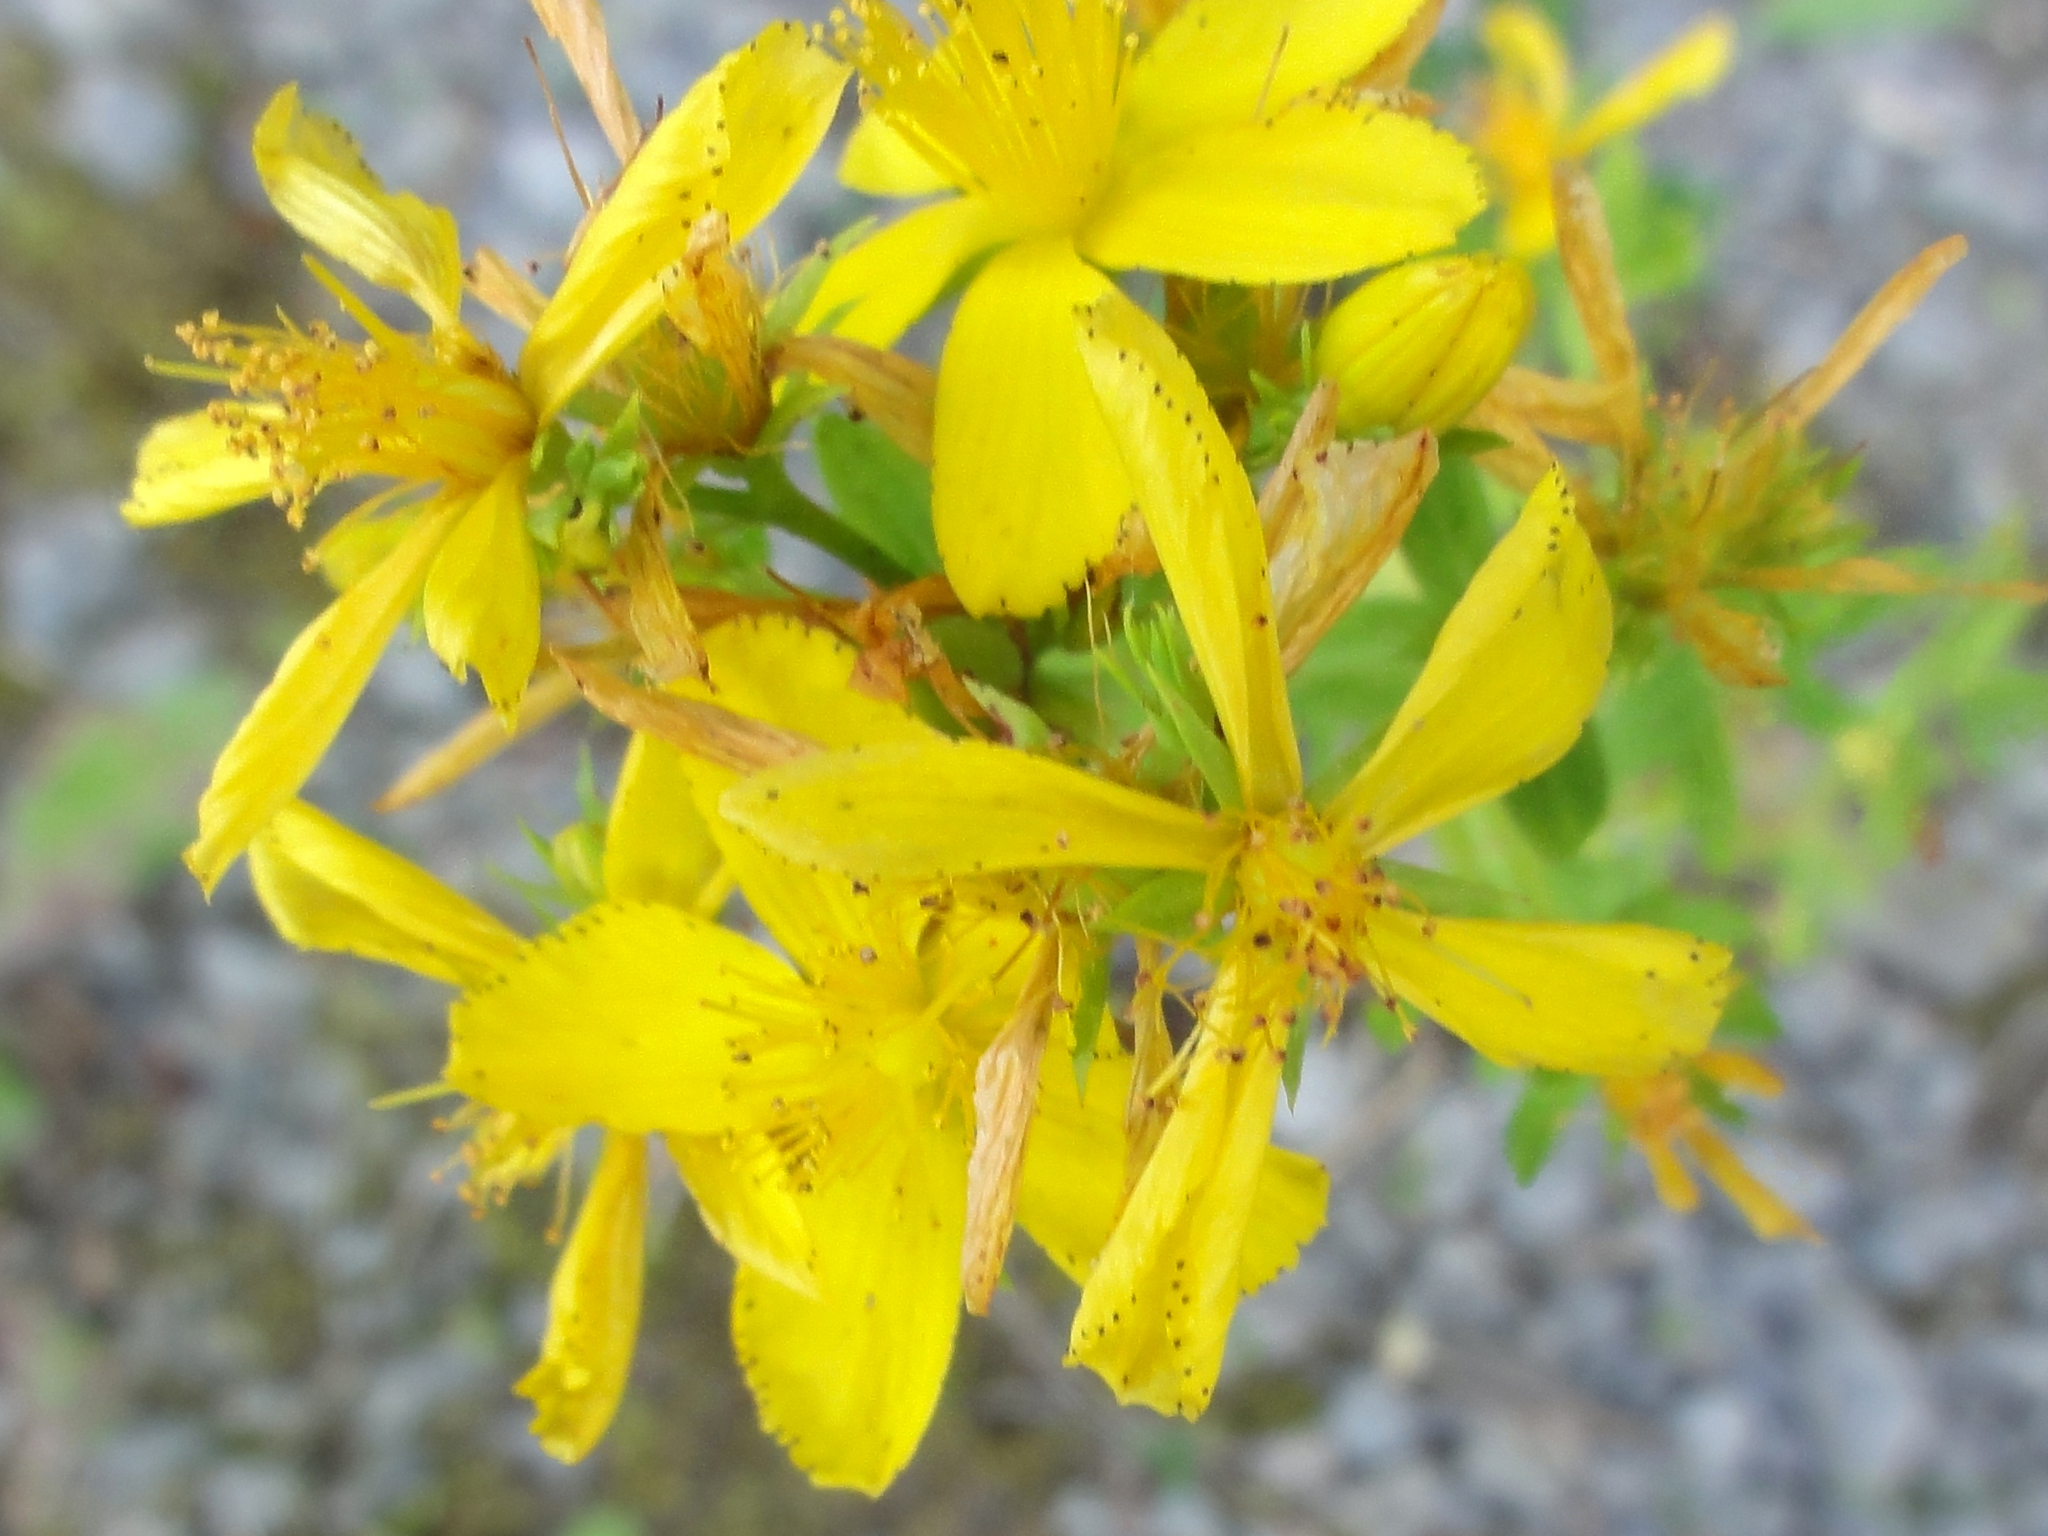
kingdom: Plantae
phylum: Tracheophyta
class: Magnoliopsida
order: Malpighiales
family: Hypericaceae
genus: Hypericum
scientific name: Hypericum perforatum
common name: Common st. johnswort
